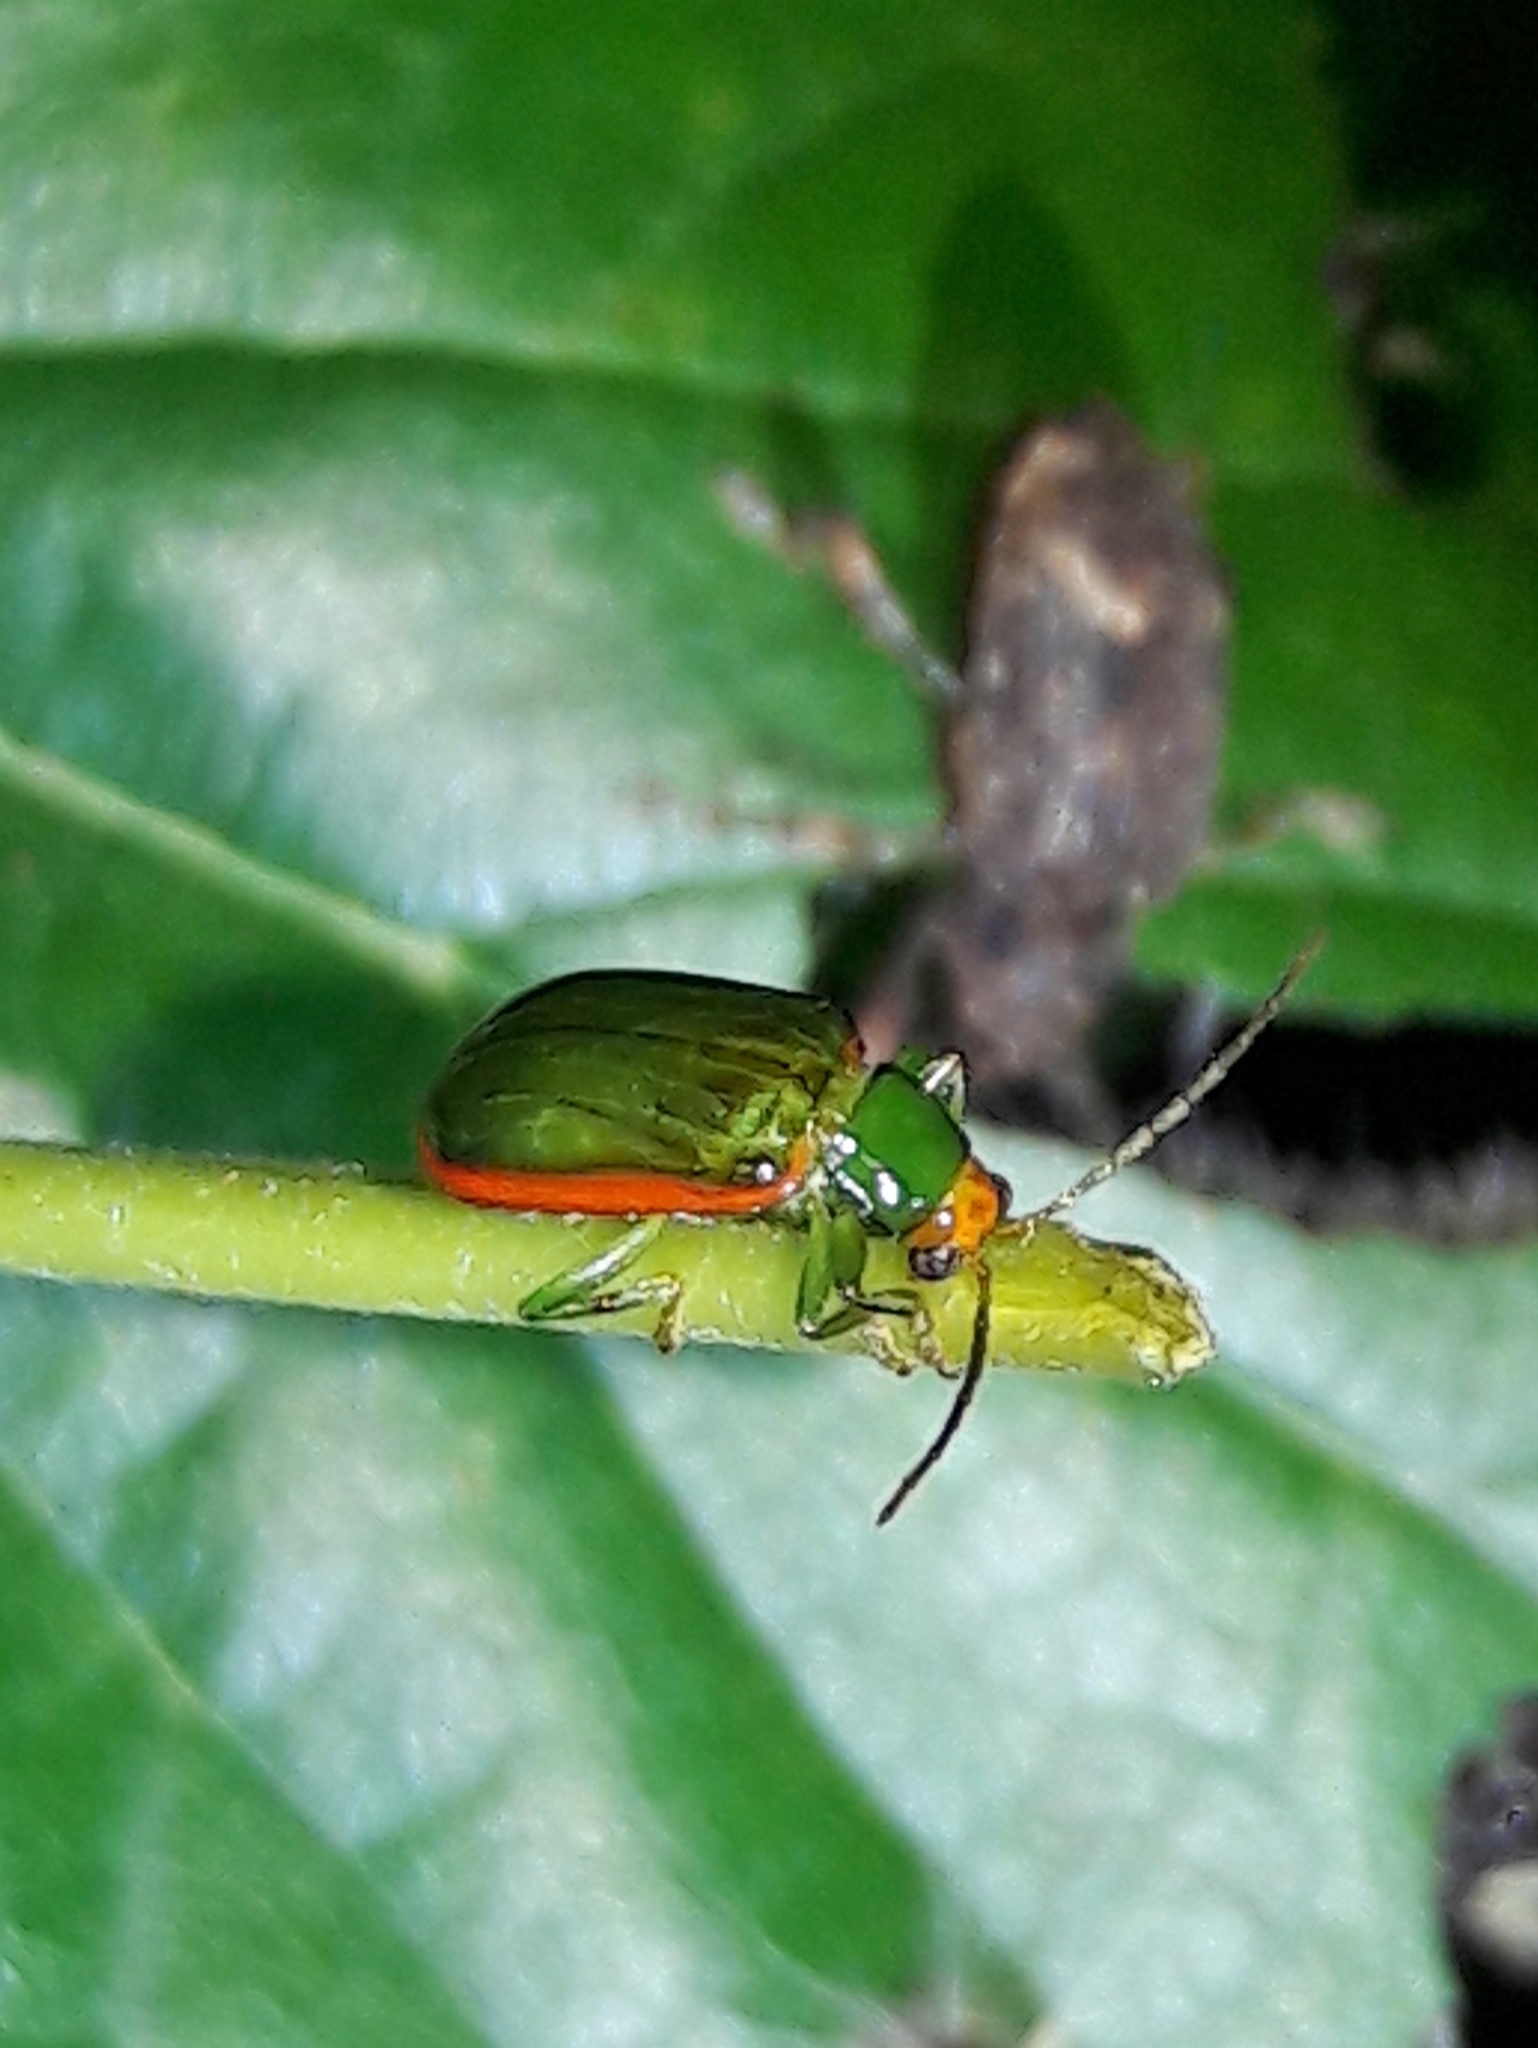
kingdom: Animalia
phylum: Arthropoda
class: Insecta
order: Coleoptera
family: Chrysomelidae
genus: Diabrotica
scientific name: Diabrotica
